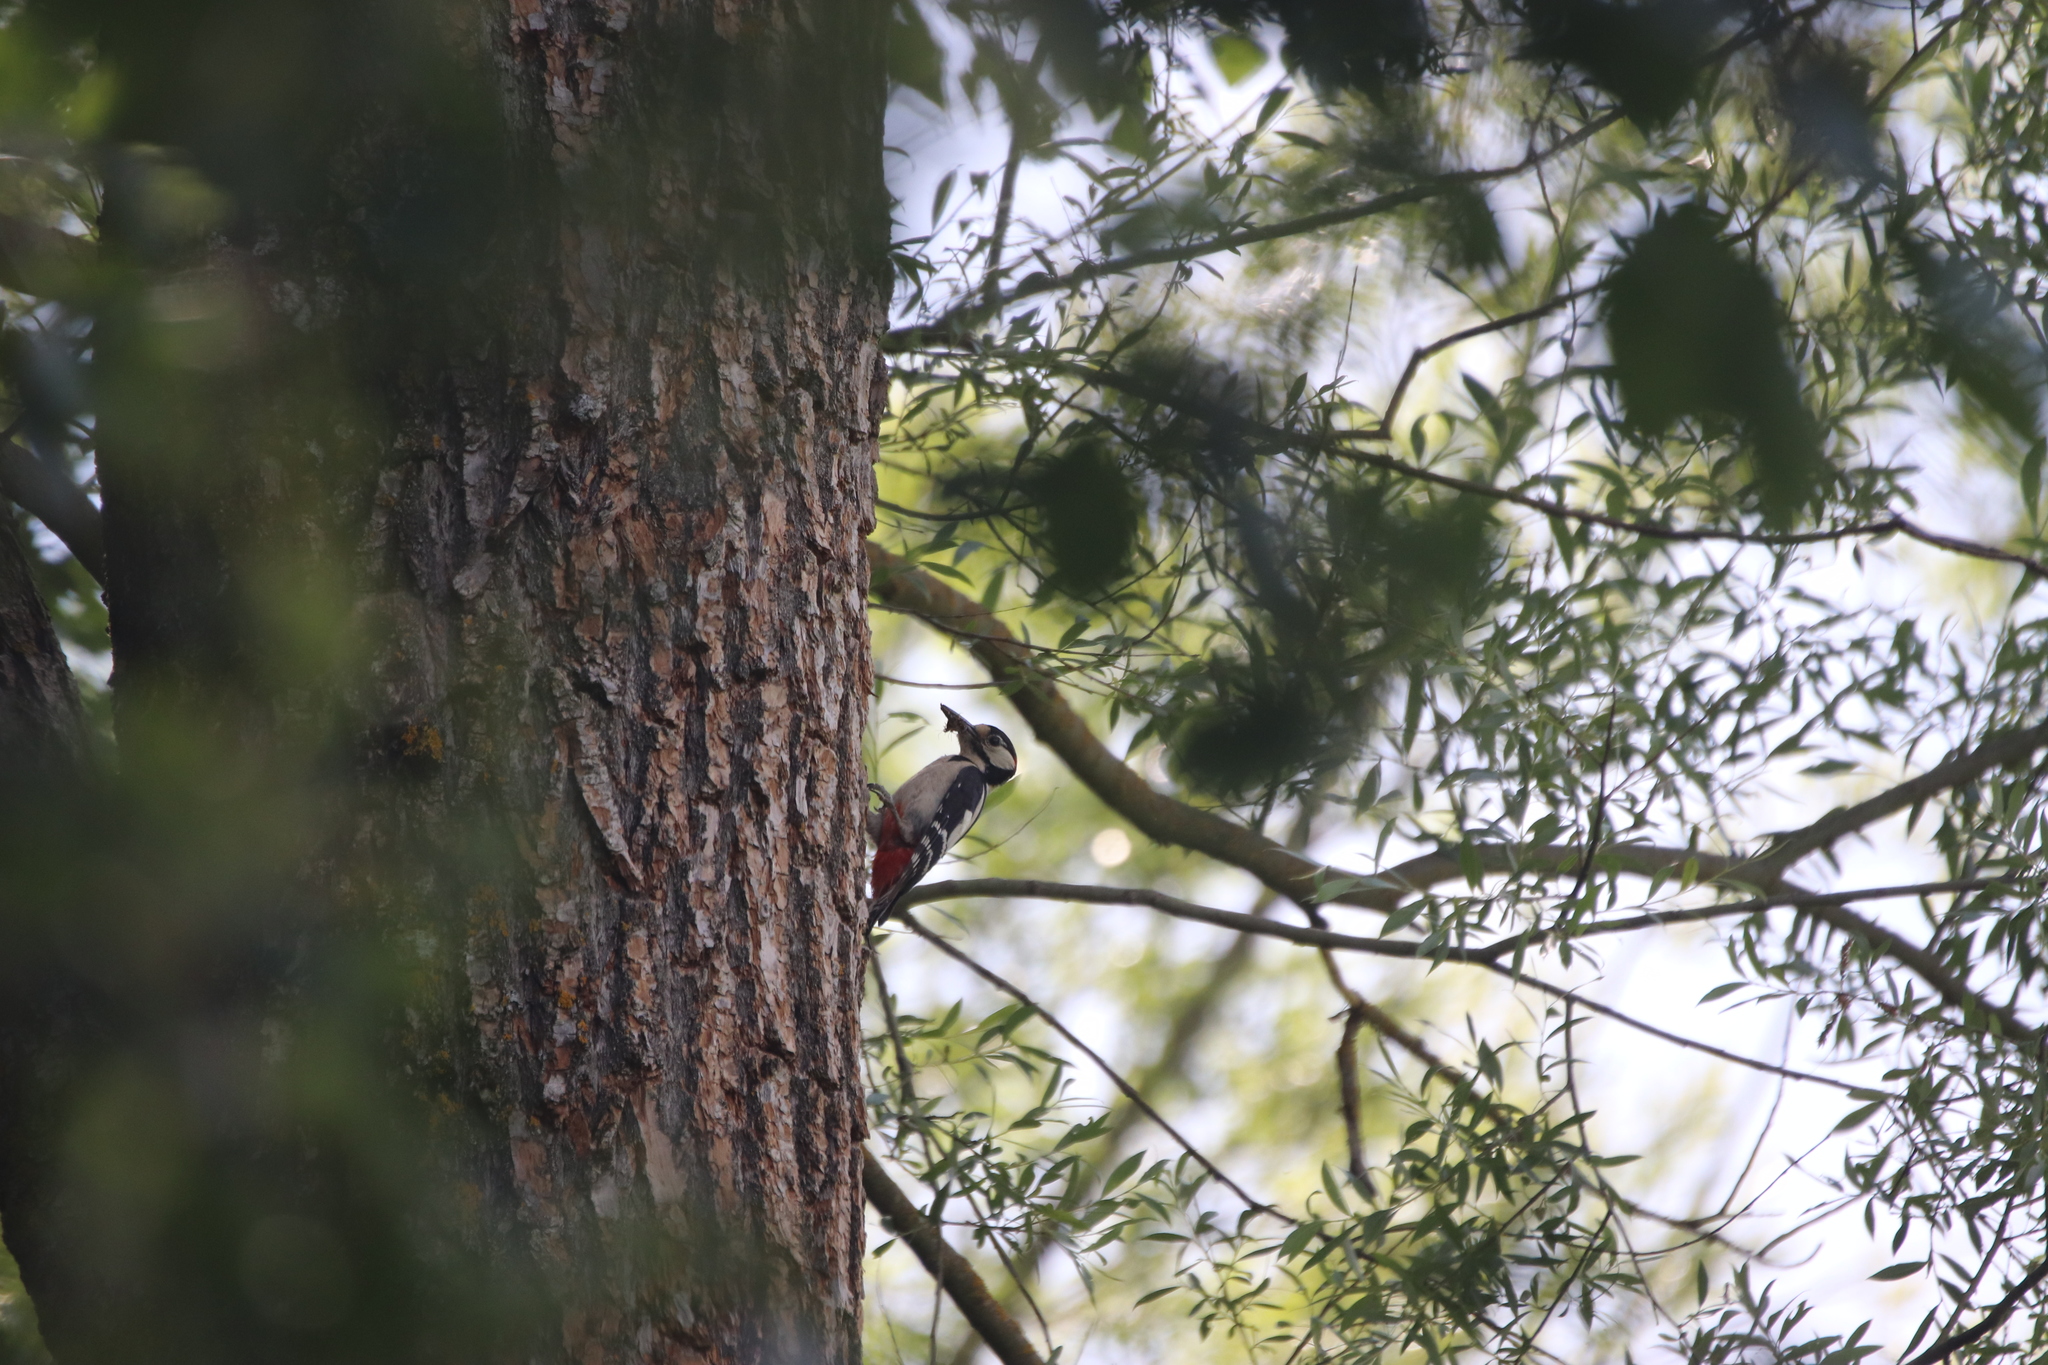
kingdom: Animalia
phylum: Chordata
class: Aves
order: Piciformes
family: Picidae
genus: Dendrocopos
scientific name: Dendrocopos major
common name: Great spotted woodpecker
